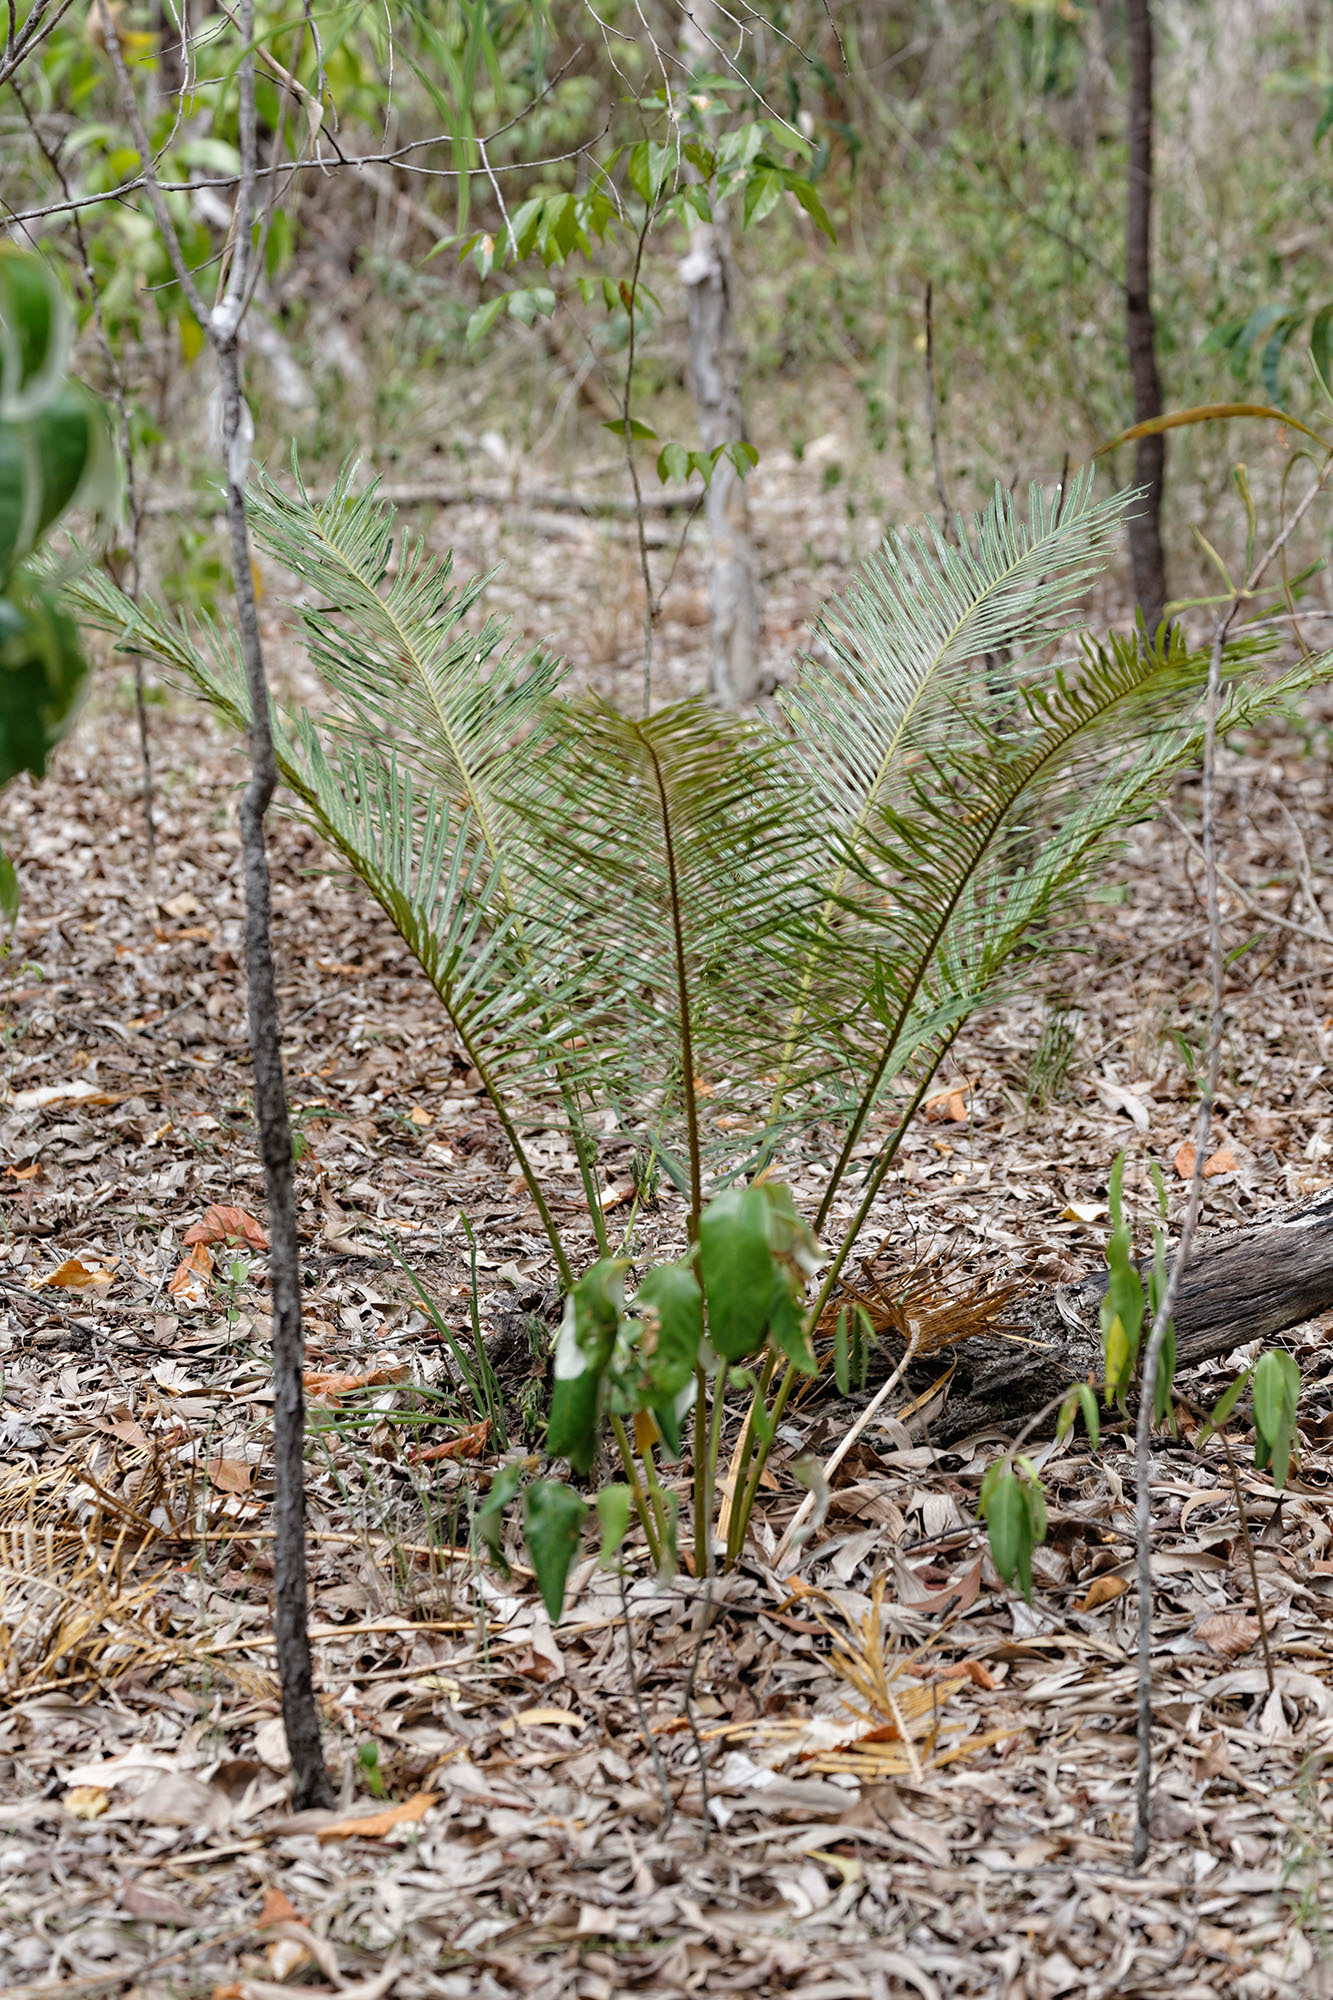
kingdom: Plantae
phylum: Tracheophyta
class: Cycadopsida
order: Cycadales
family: Cycadaceae
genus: Cycas
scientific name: Cycas media
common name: Queensland cycas
